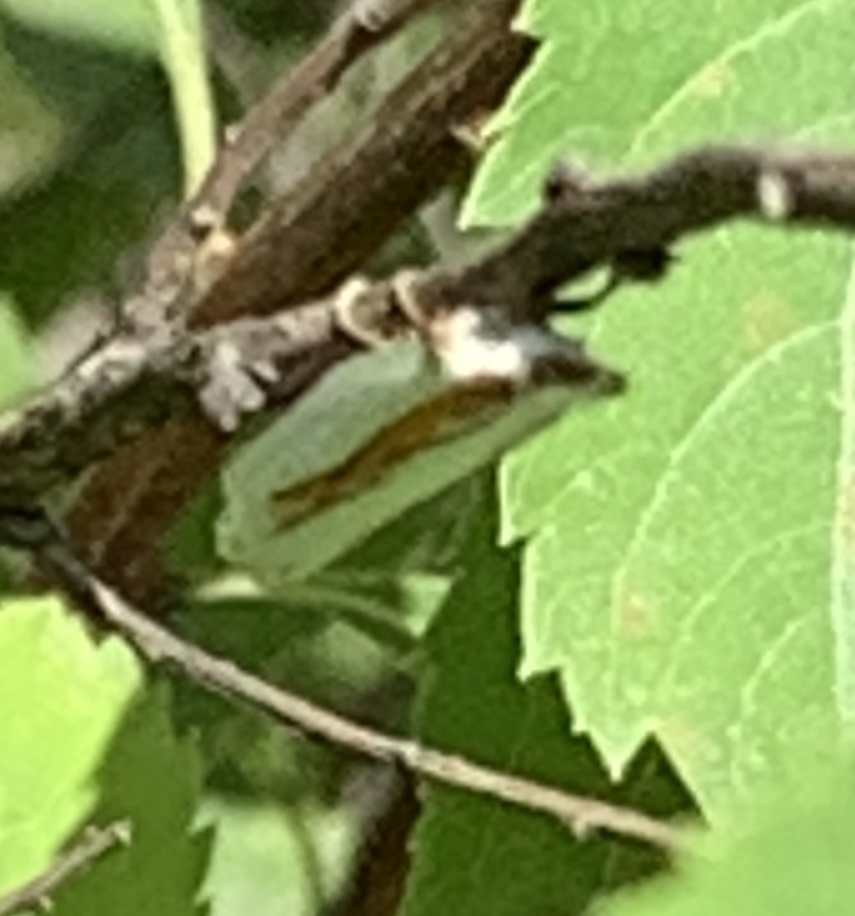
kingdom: Animalia
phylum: Arthropoda
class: Insecta
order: Lepidoptera
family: Crambidae
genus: Crambus
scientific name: Crambus girardellus
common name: Girard's grass-veneer
